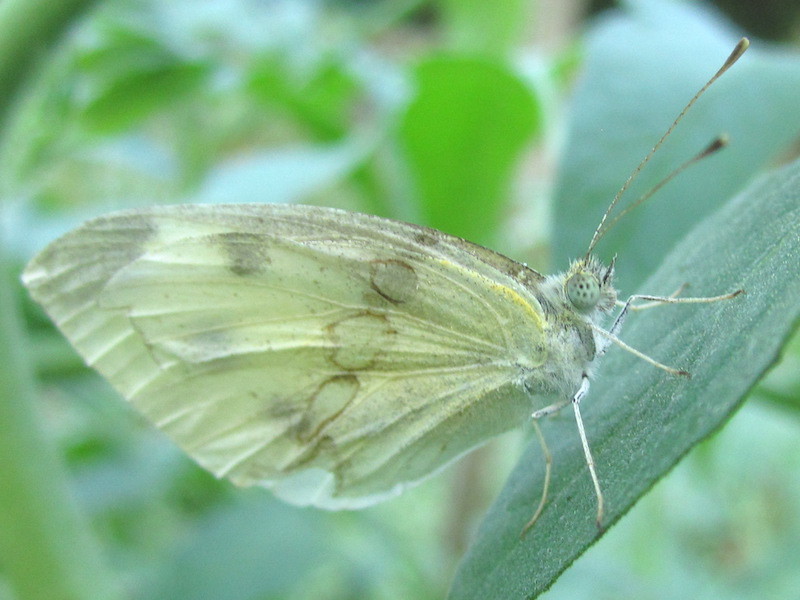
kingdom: Animalia
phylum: Arthropoda
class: Insecta
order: Lepidoptera
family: Pieridae
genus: Pieris
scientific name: Pieris rapae
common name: Small white
